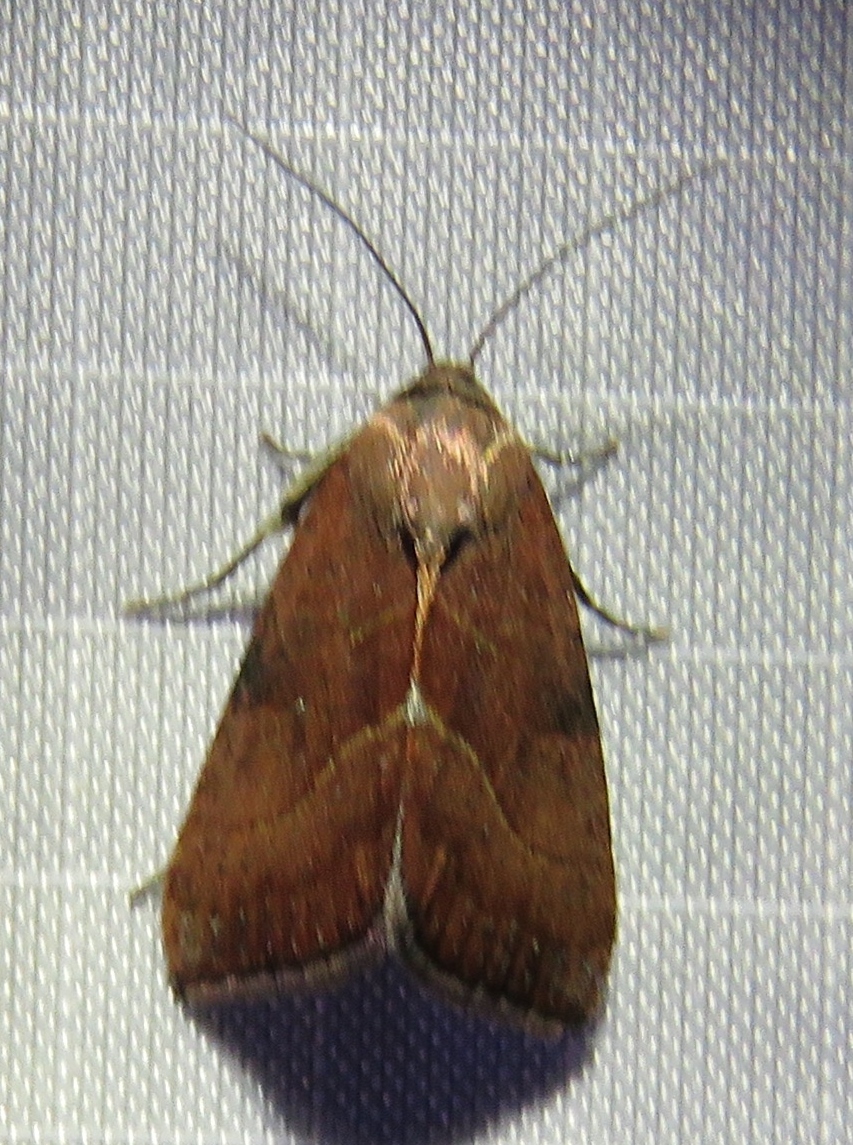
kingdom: Animalia
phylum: Arthropoda
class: Insecta
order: Lepidoptera
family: Noctuidae
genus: Galgula
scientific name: Galgula partita
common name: Wedgeling
